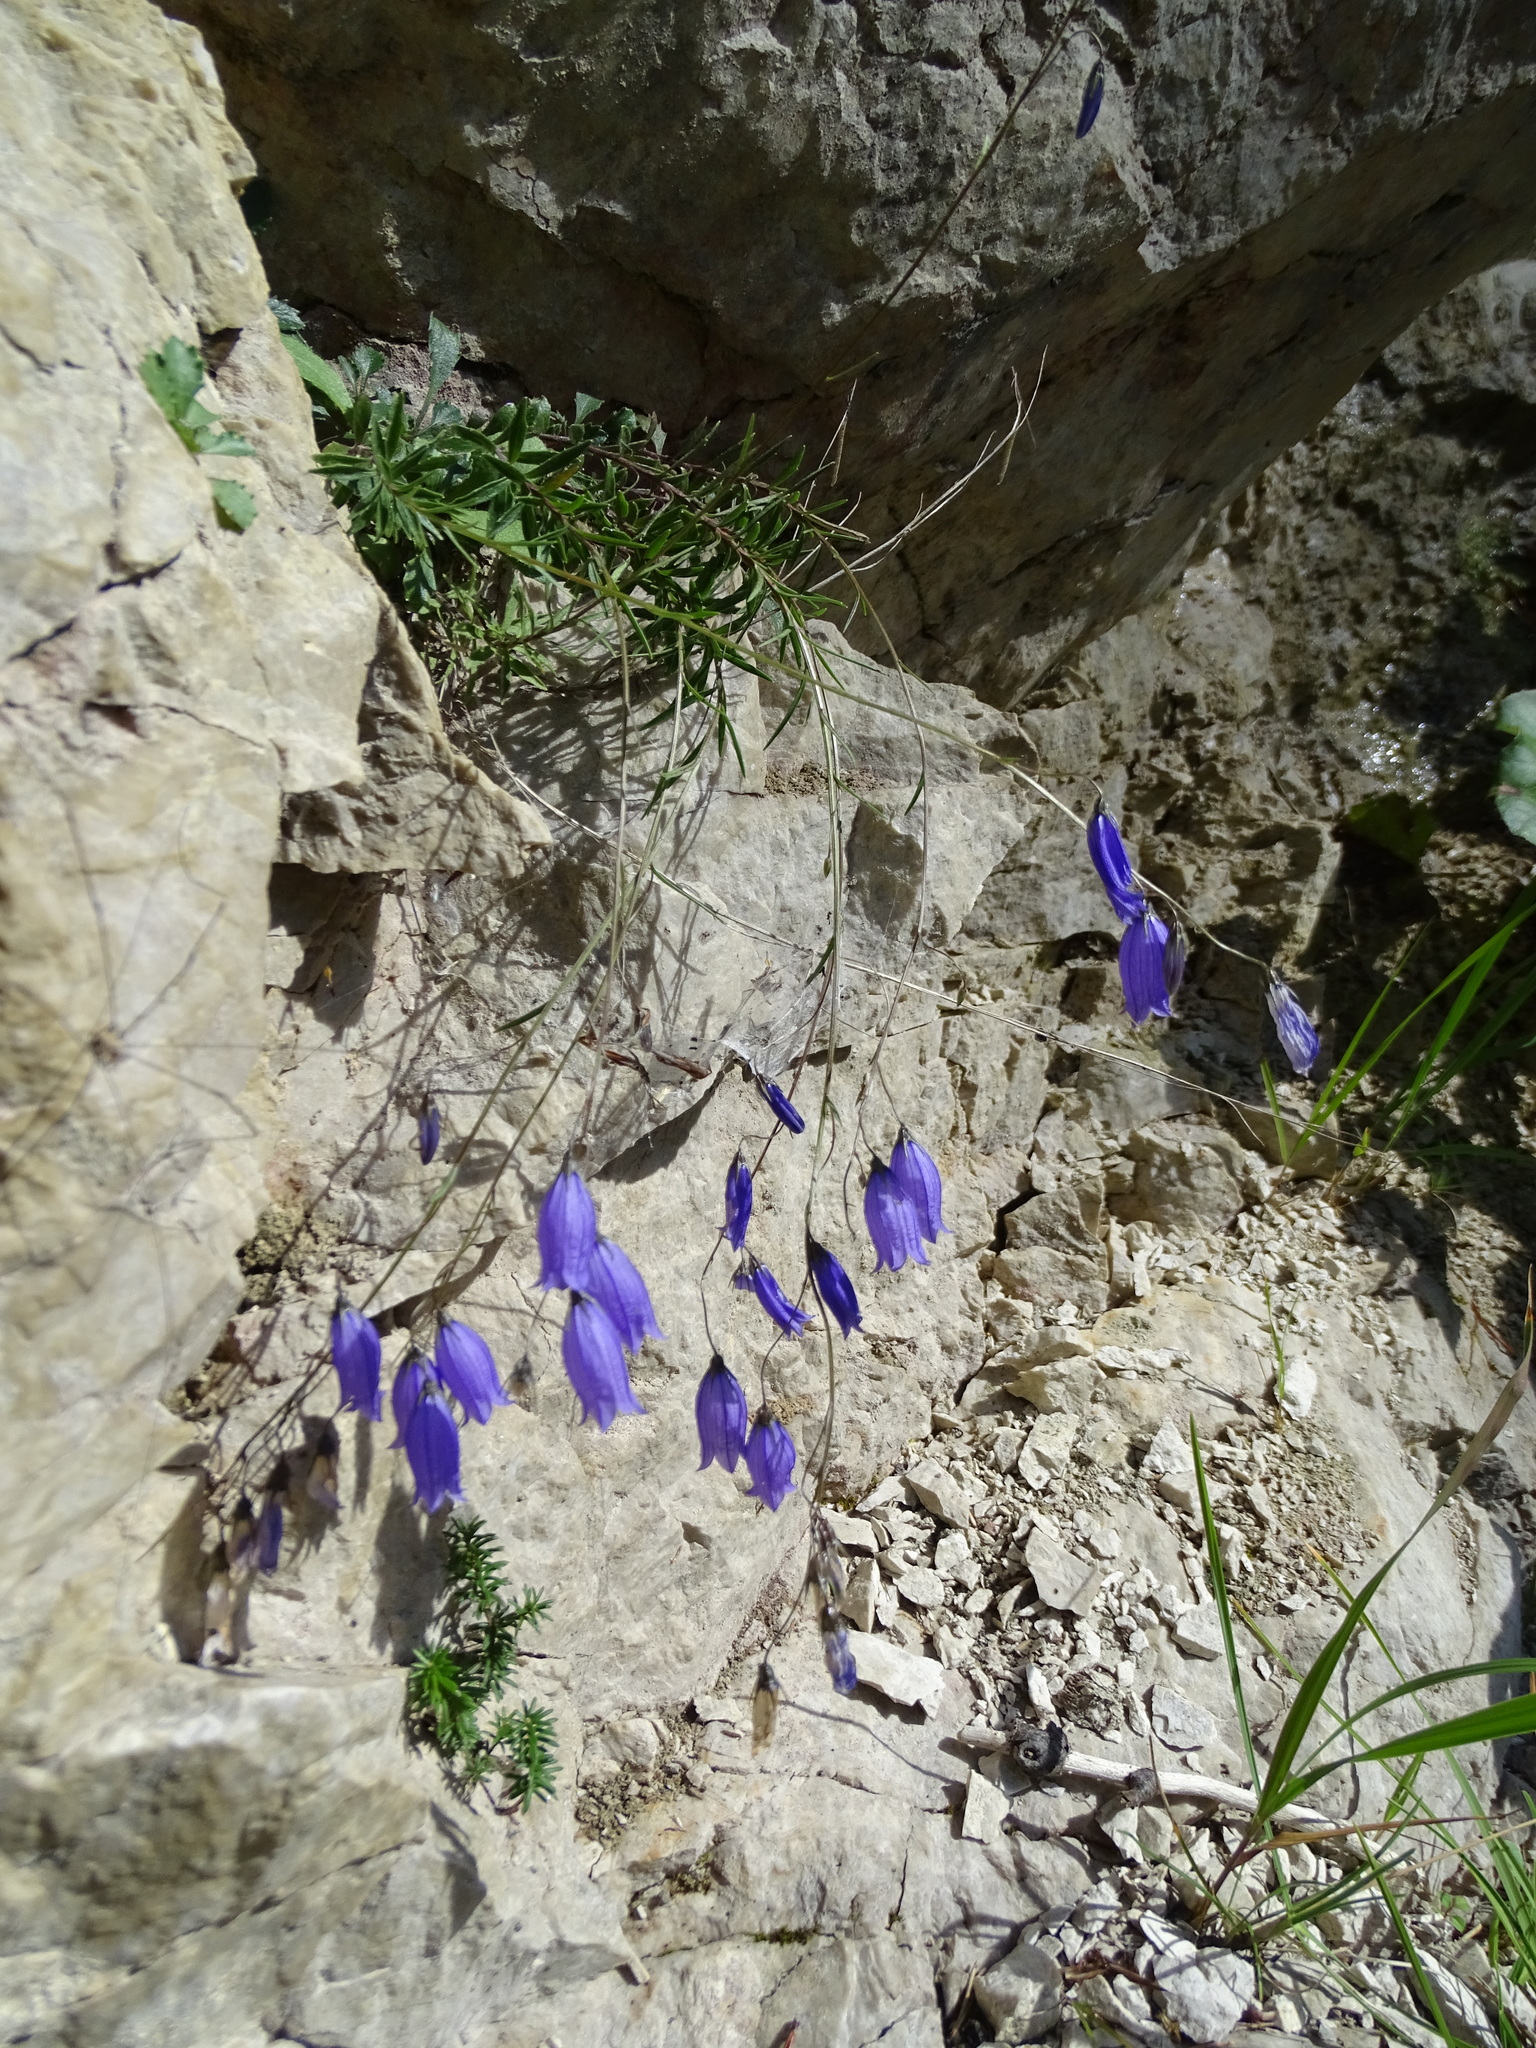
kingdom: Plantae
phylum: Tracheophyta
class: Magnoliopsida
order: Asterales
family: Campanulaceae
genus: Campanula
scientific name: Campanula cespitosa
